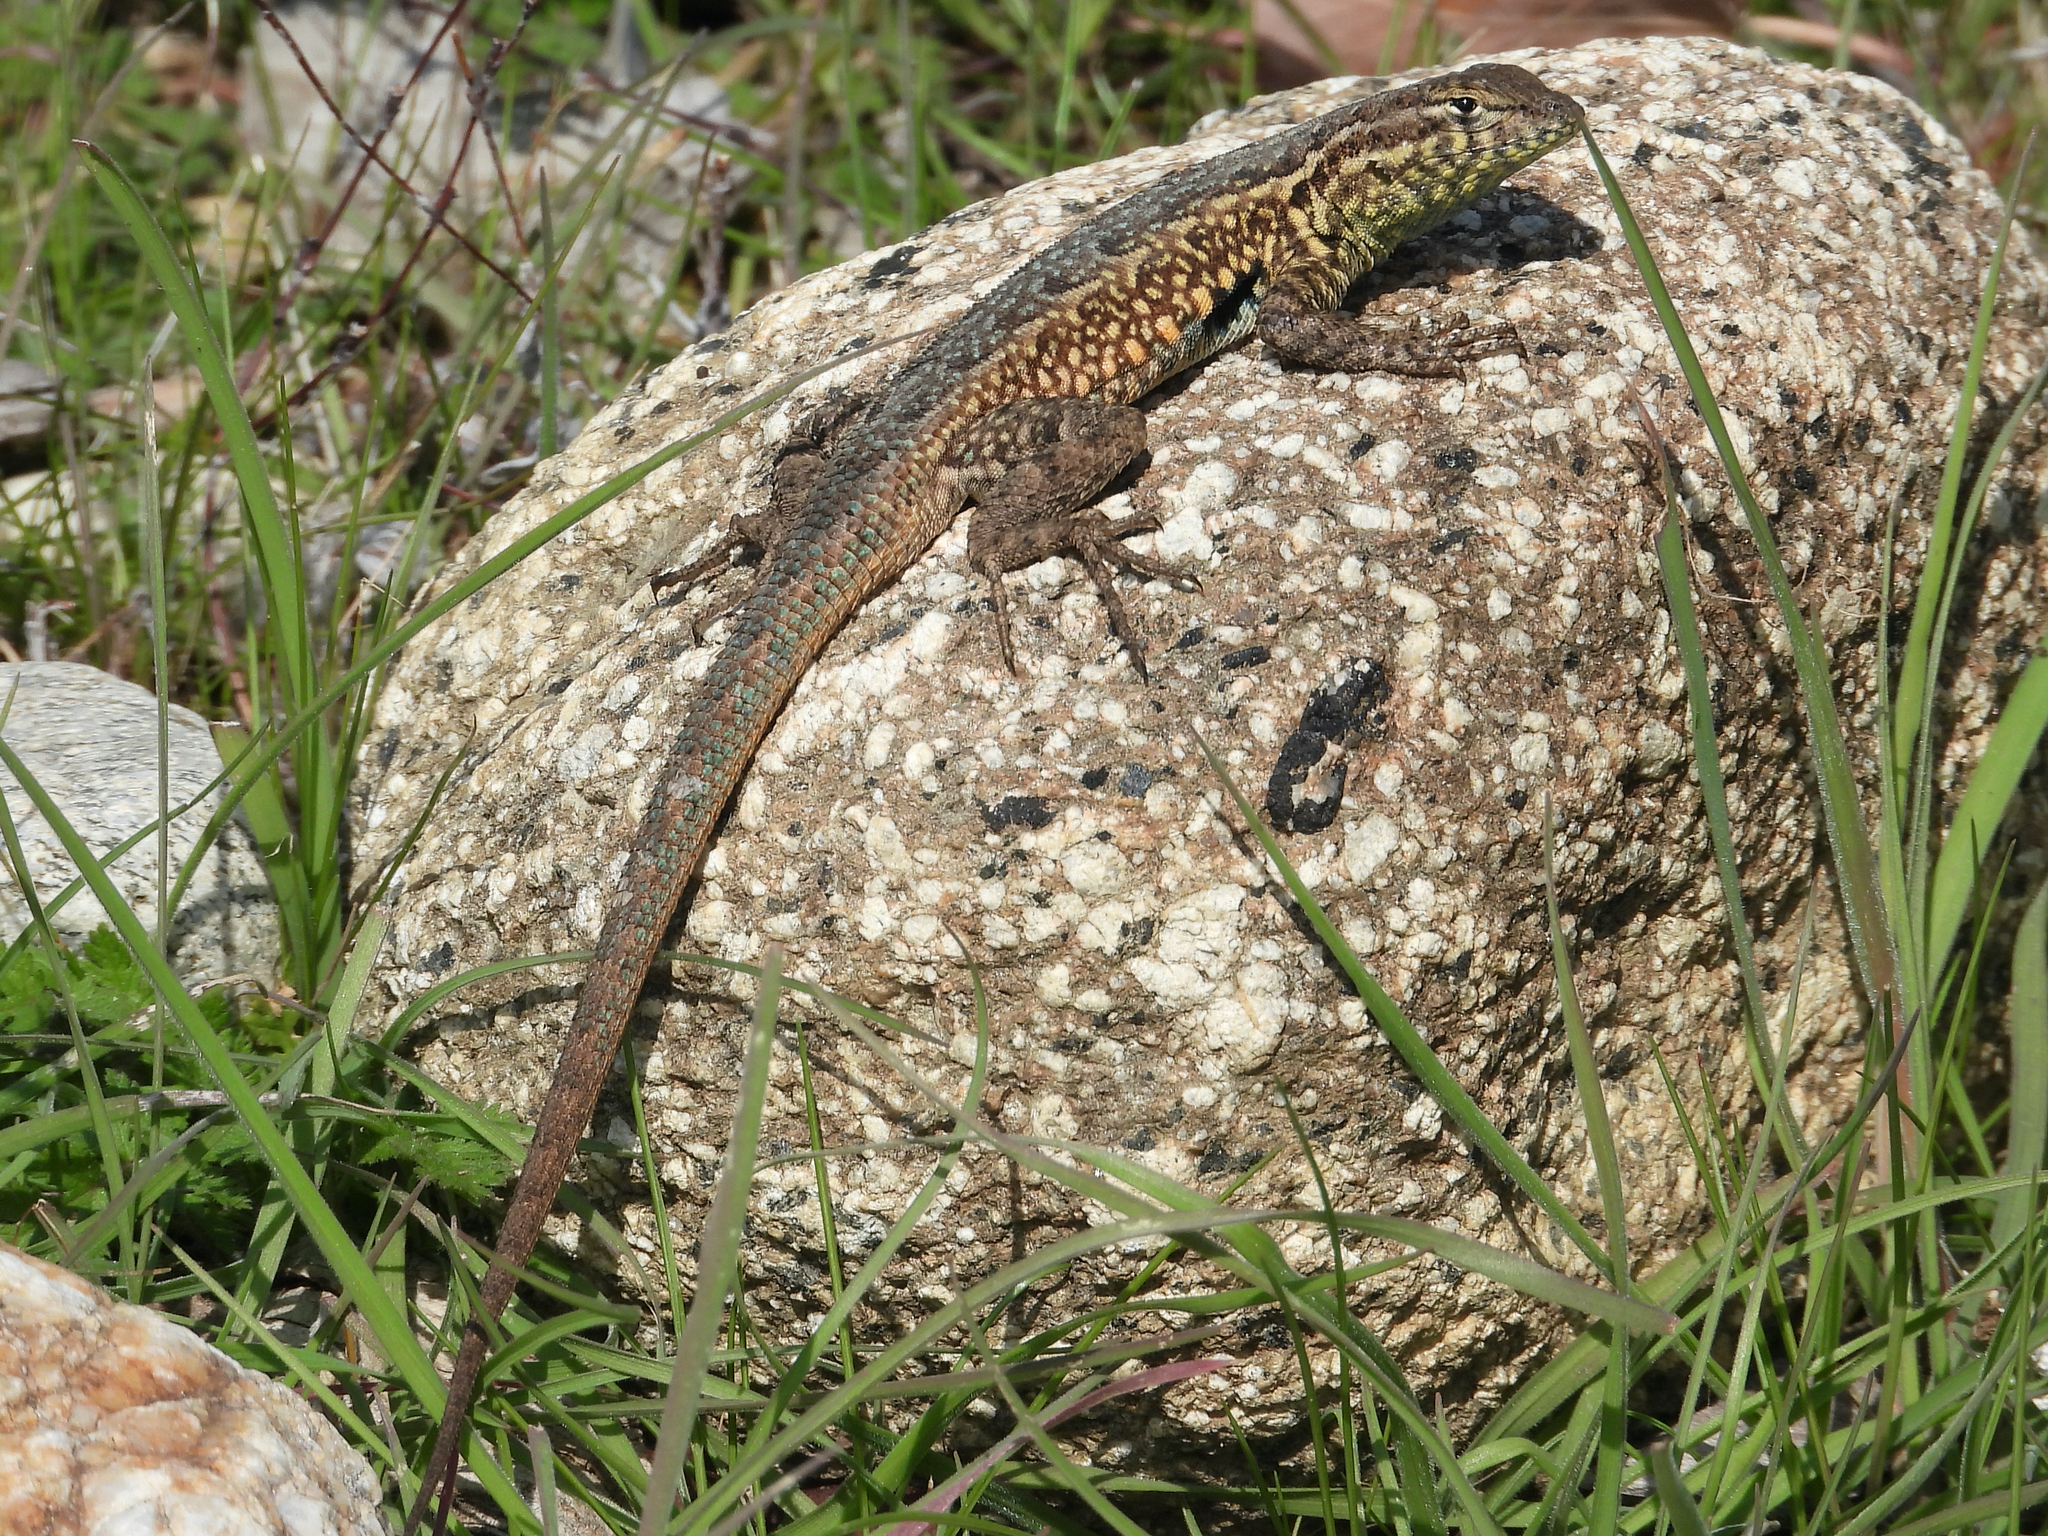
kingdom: Animalia
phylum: Chordata
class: Squamata
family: Phrynosomatidae
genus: Uta
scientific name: Uta stansburiana
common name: Side-blotched lizard
